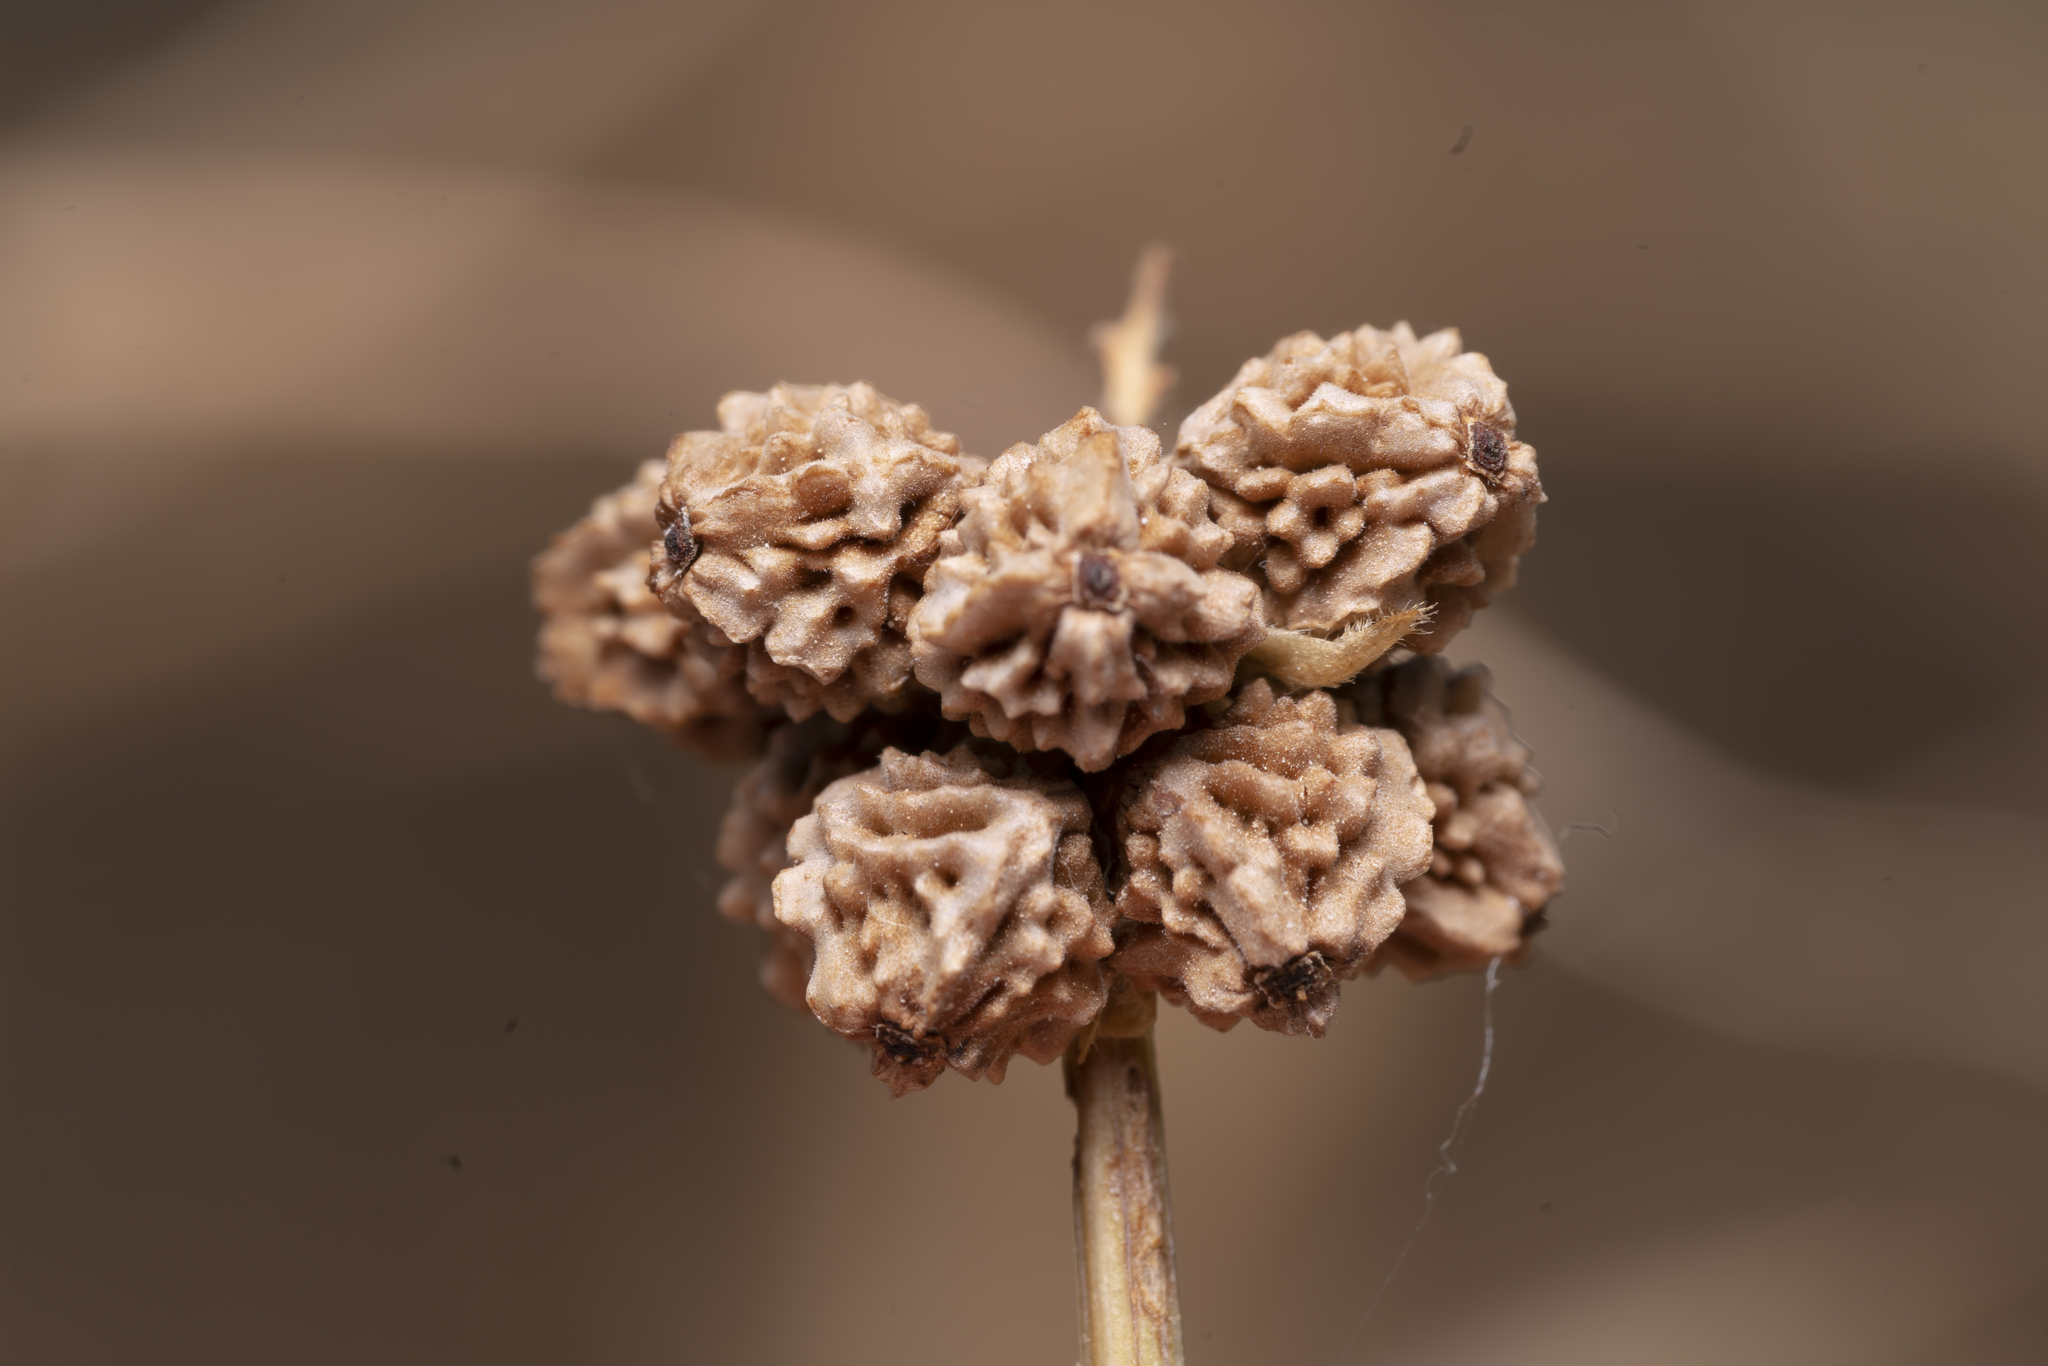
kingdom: Plantae
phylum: Tracheophyta
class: Magnoliopsida
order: Rosales
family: Rosaceae
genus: Poterium
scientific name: Poterium
